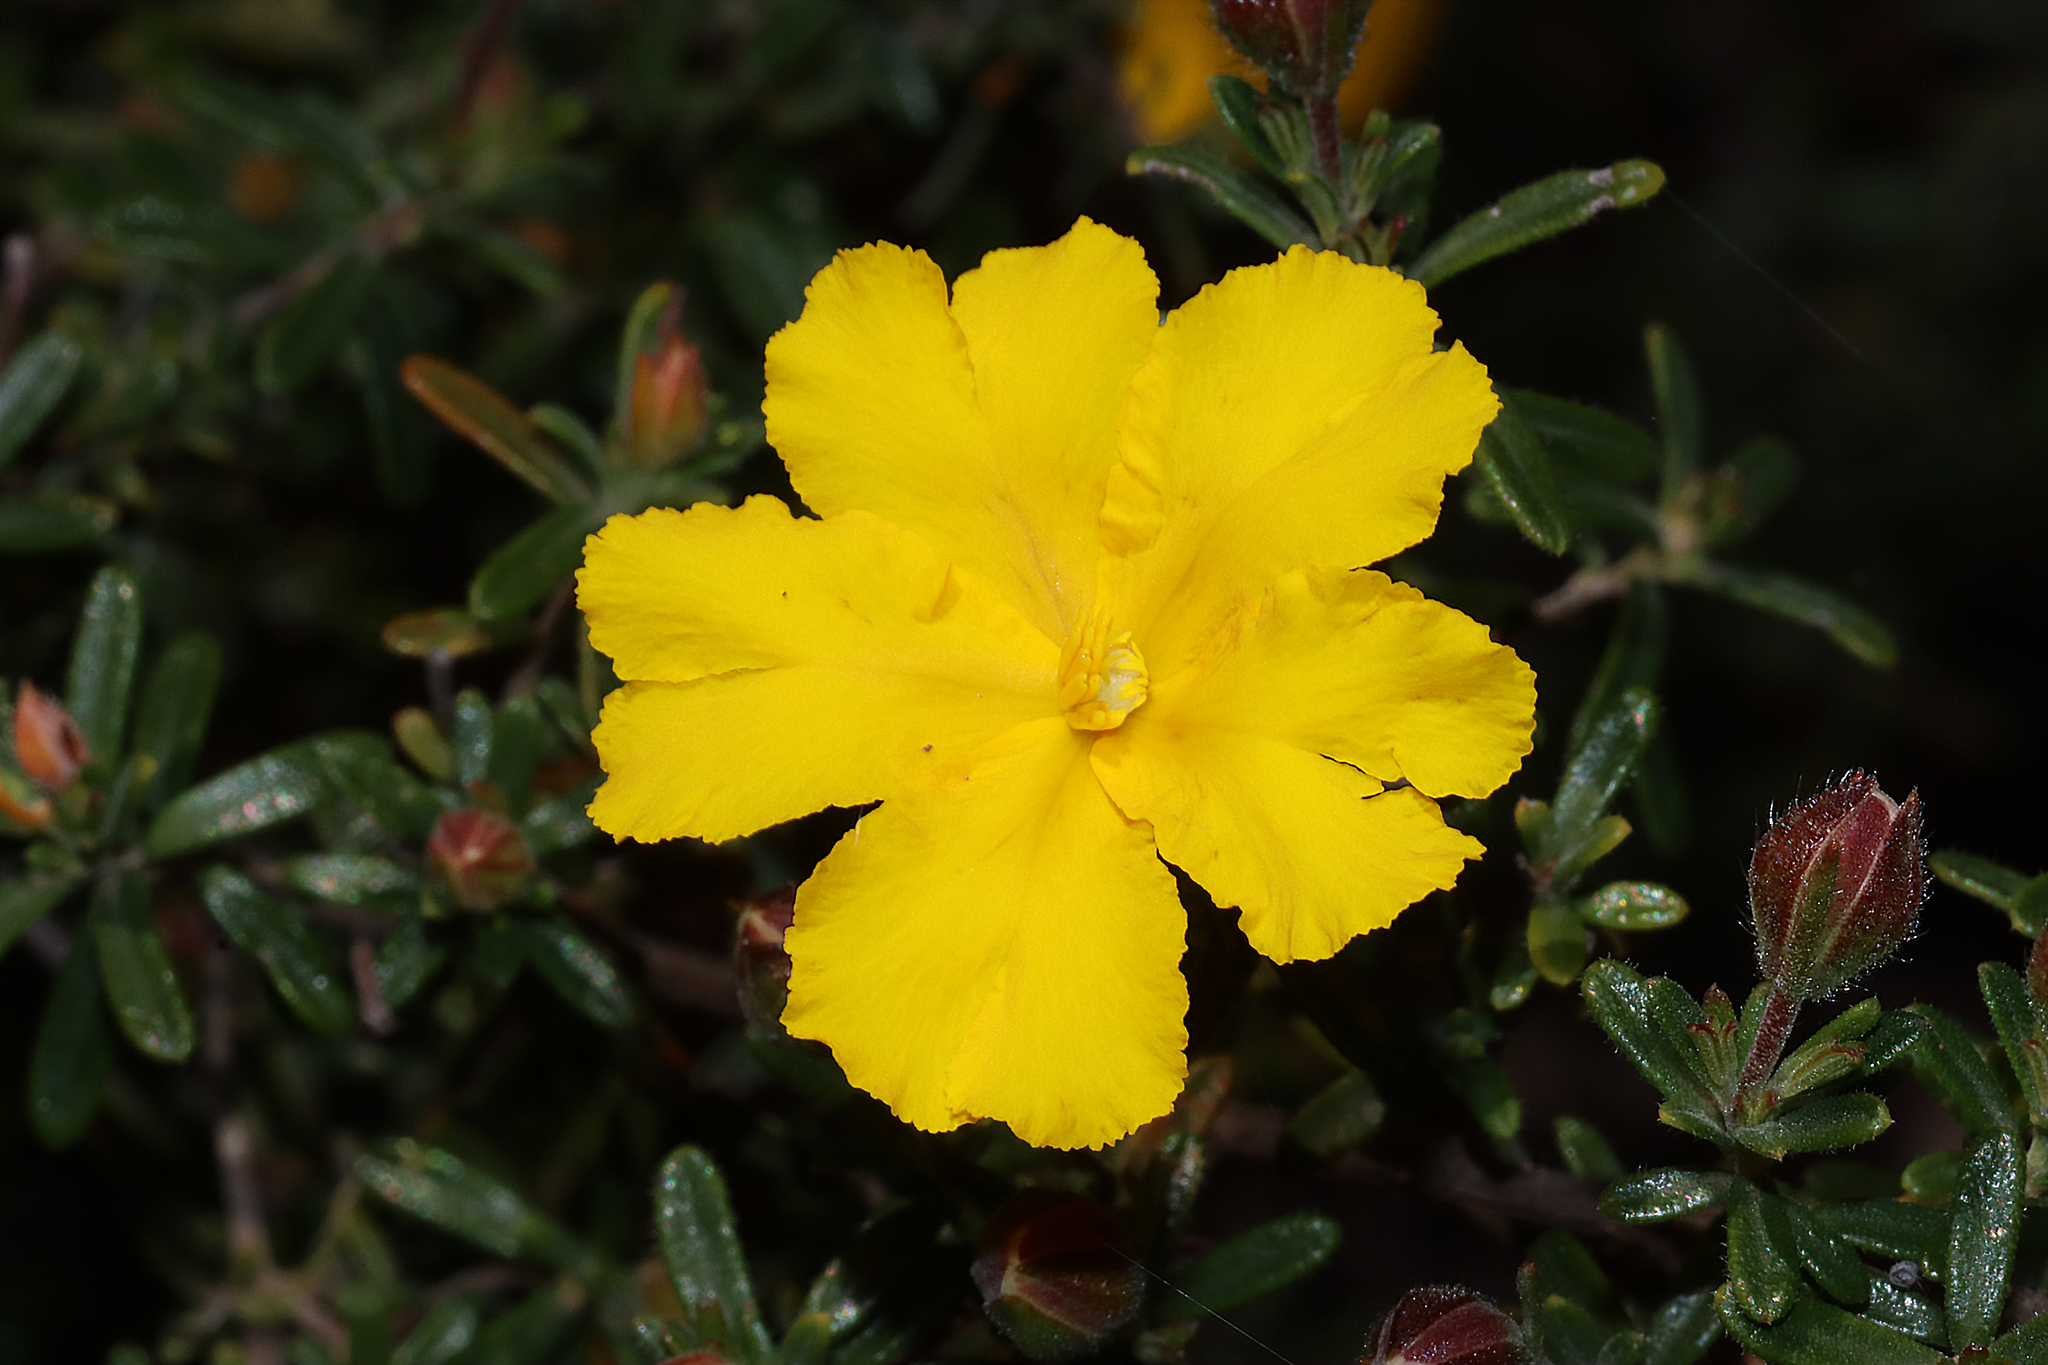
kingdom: Plantae
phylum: Tracheophyta
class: Magnoliopsida
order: Dilleniales
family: Dilleniaceae
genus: Hibbertia
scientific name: Hibbertia hypericoides
